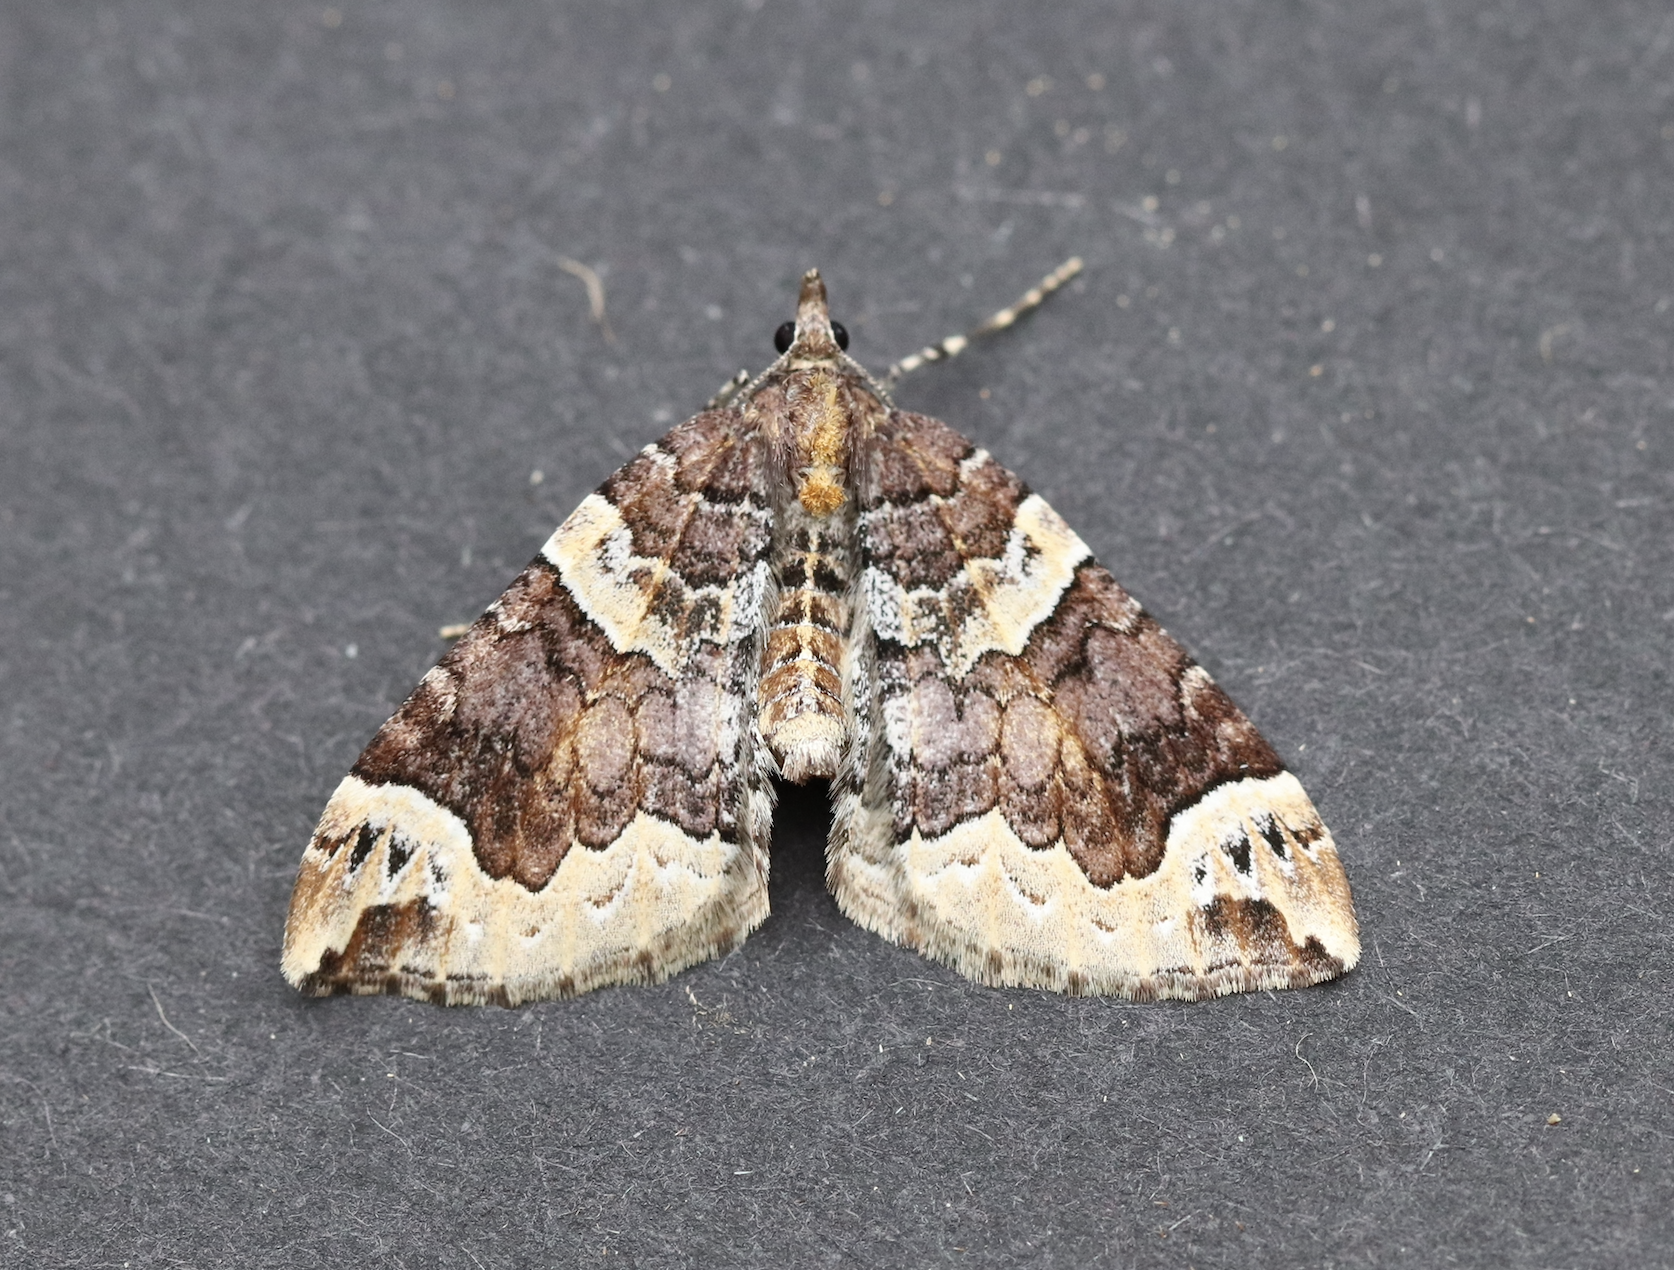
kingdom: Animalia
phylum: Arthropoda
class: Insecta
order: Lepidoptera
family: Geometridae
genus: Eulithis
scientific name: Eulithis xylina
